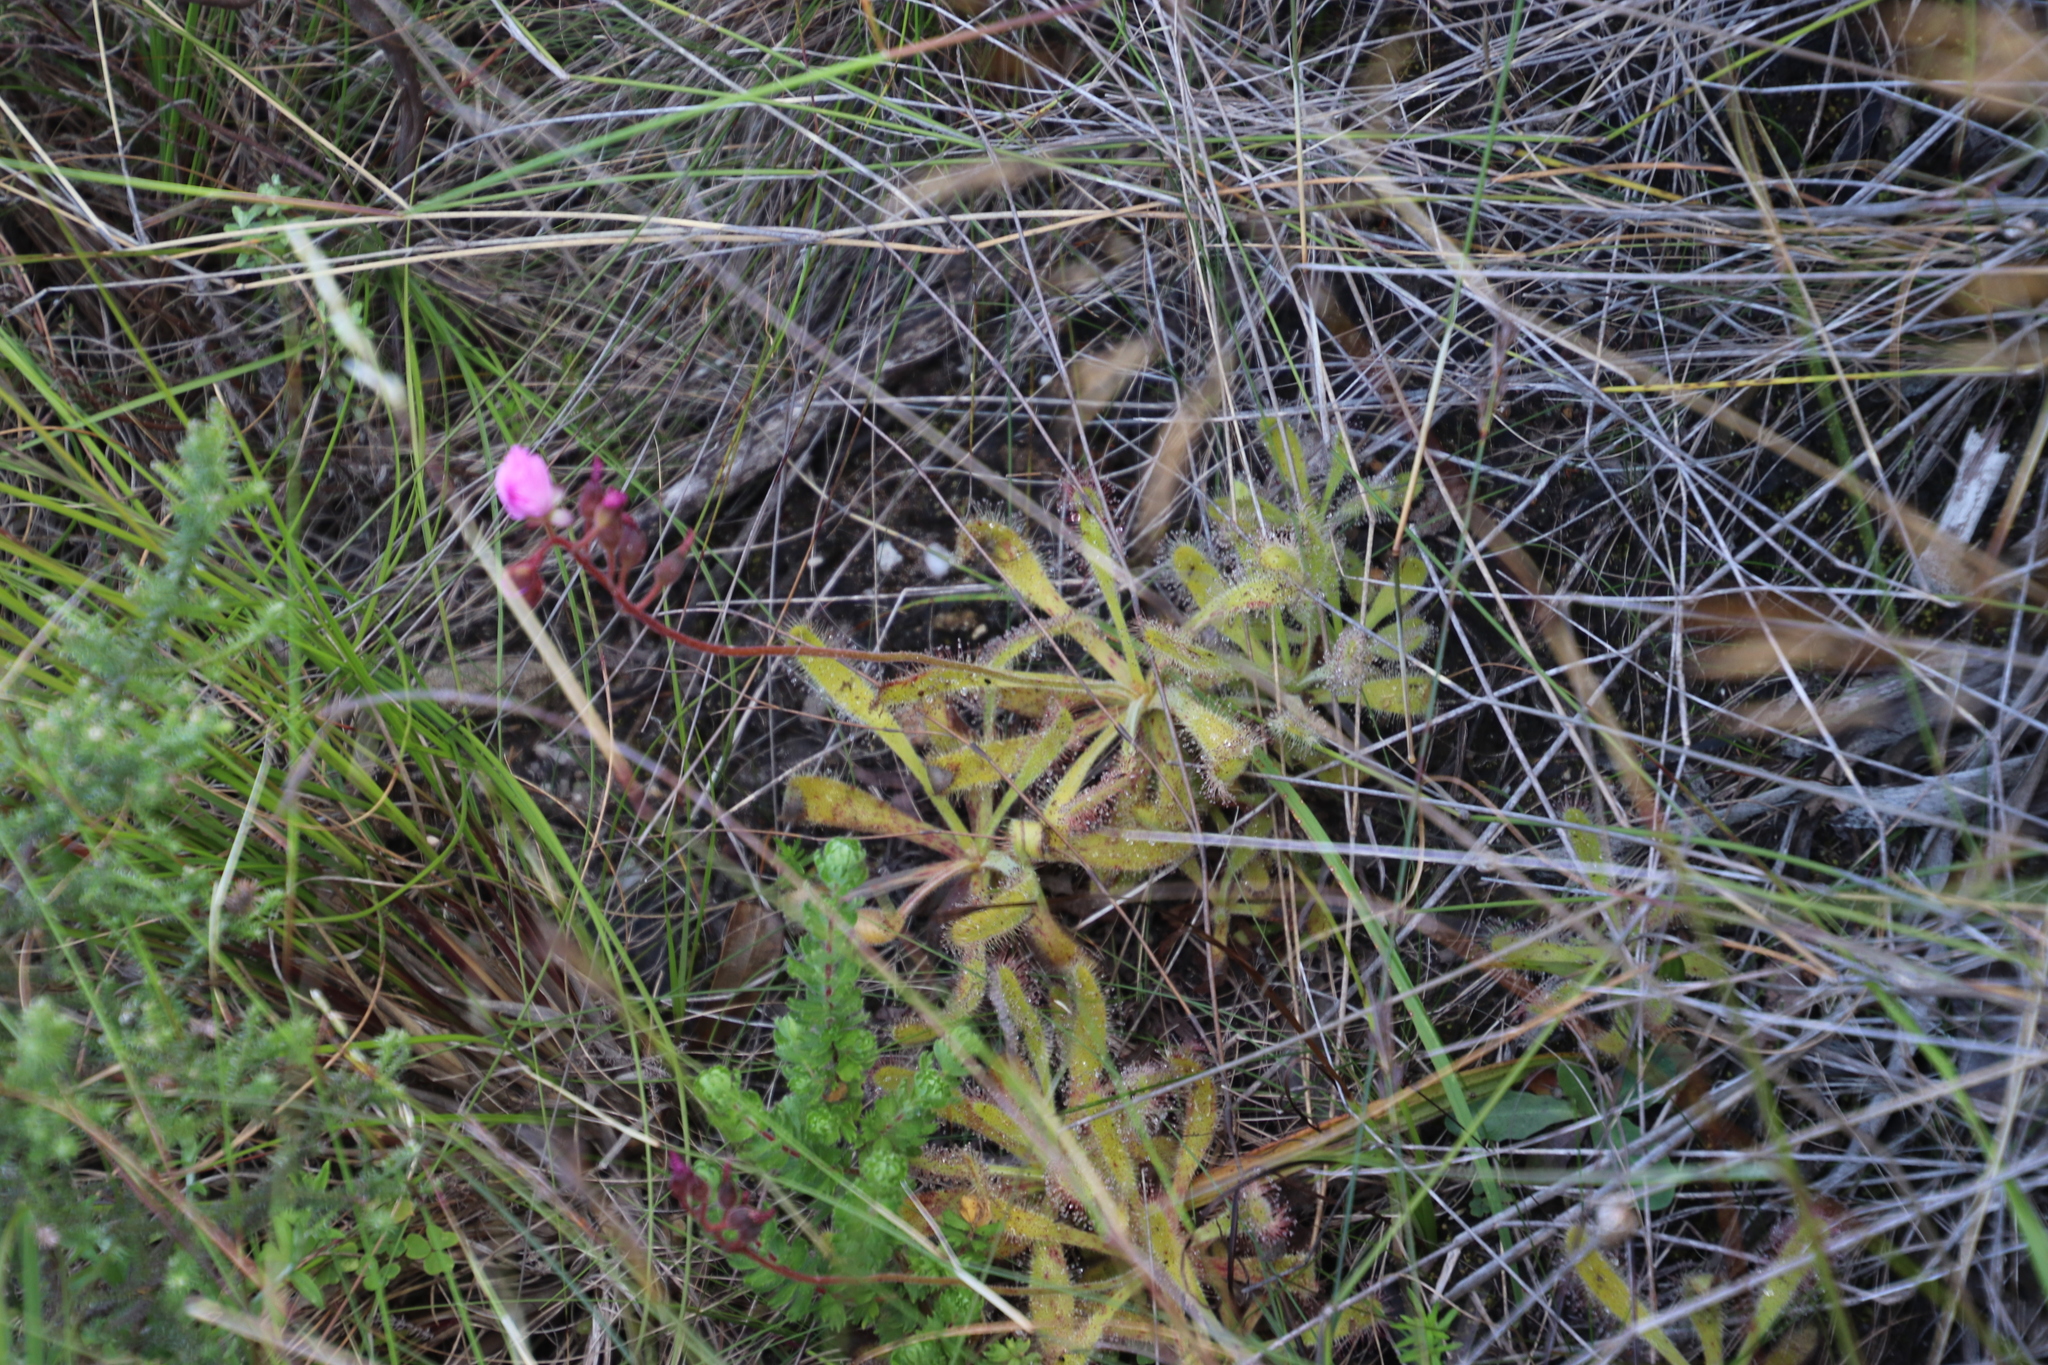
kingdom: Plantae
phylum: Tracheophyta
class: Magnoliopsida
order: Caryophyllales
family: Droseraceae
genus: Drosera
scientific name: Drosera hilaris
